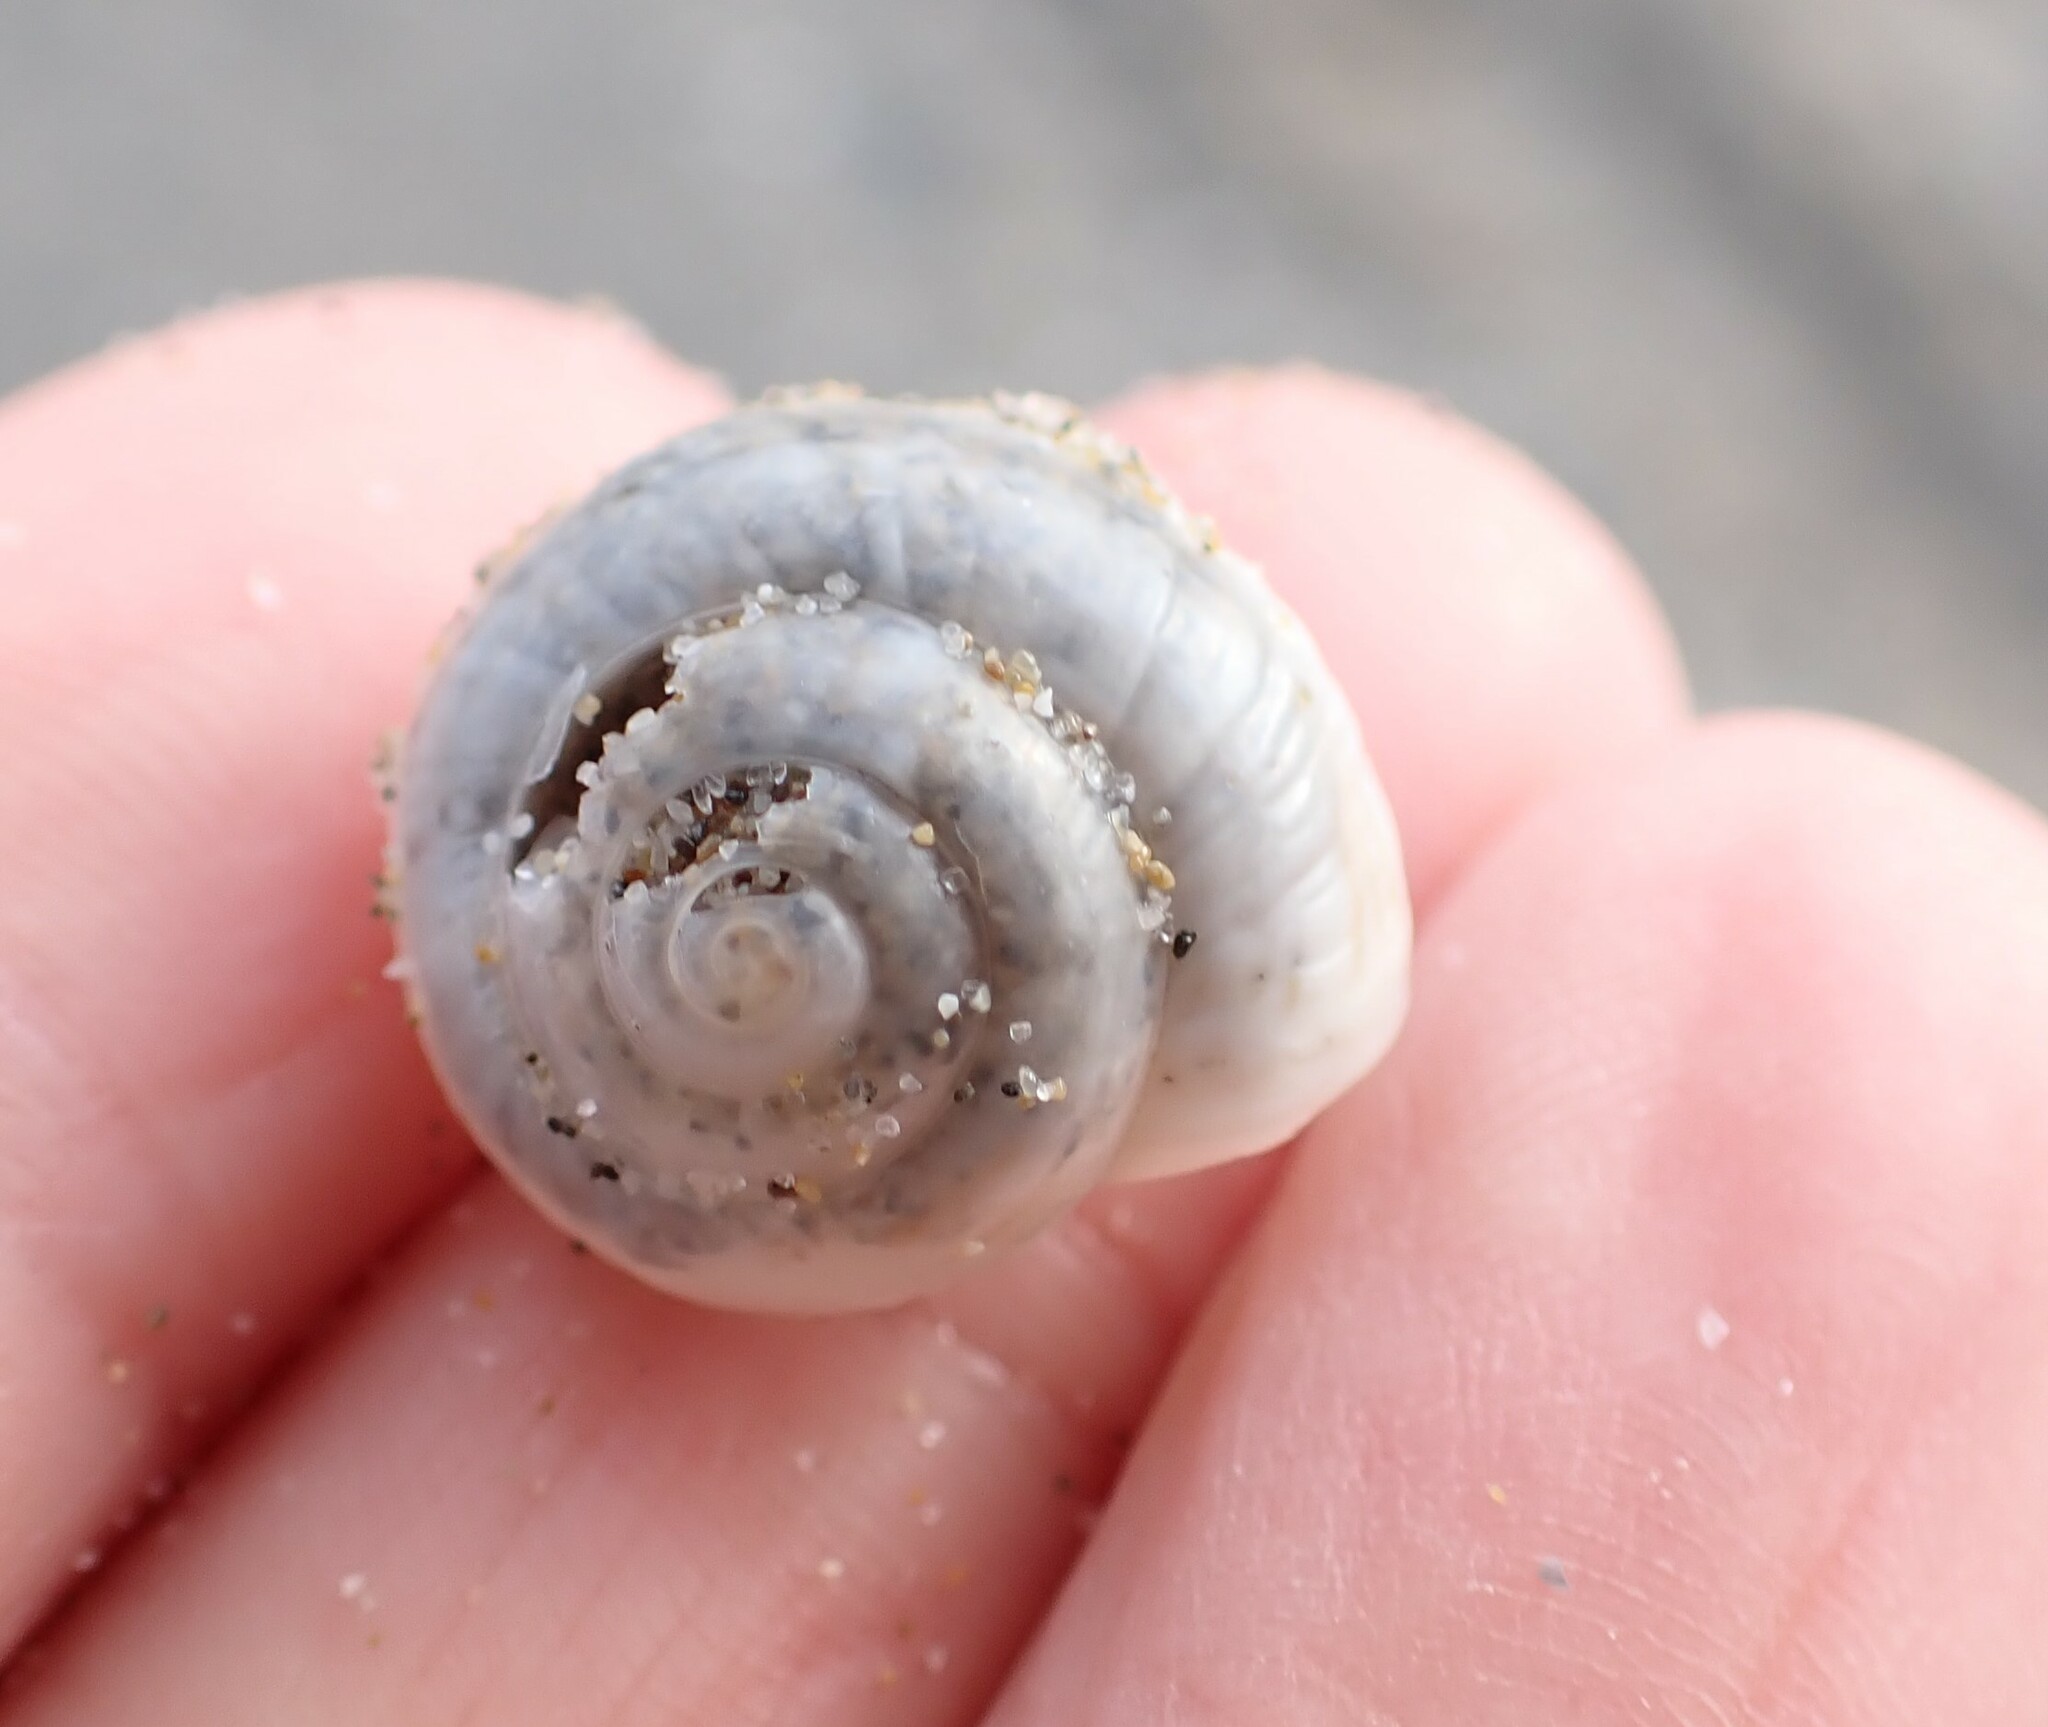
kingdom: Animalia
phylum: Mollusca
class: Gastropoda
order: Stylommatophora
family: Helicidae
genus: Theba
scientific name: Theba pisana
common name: White snail
